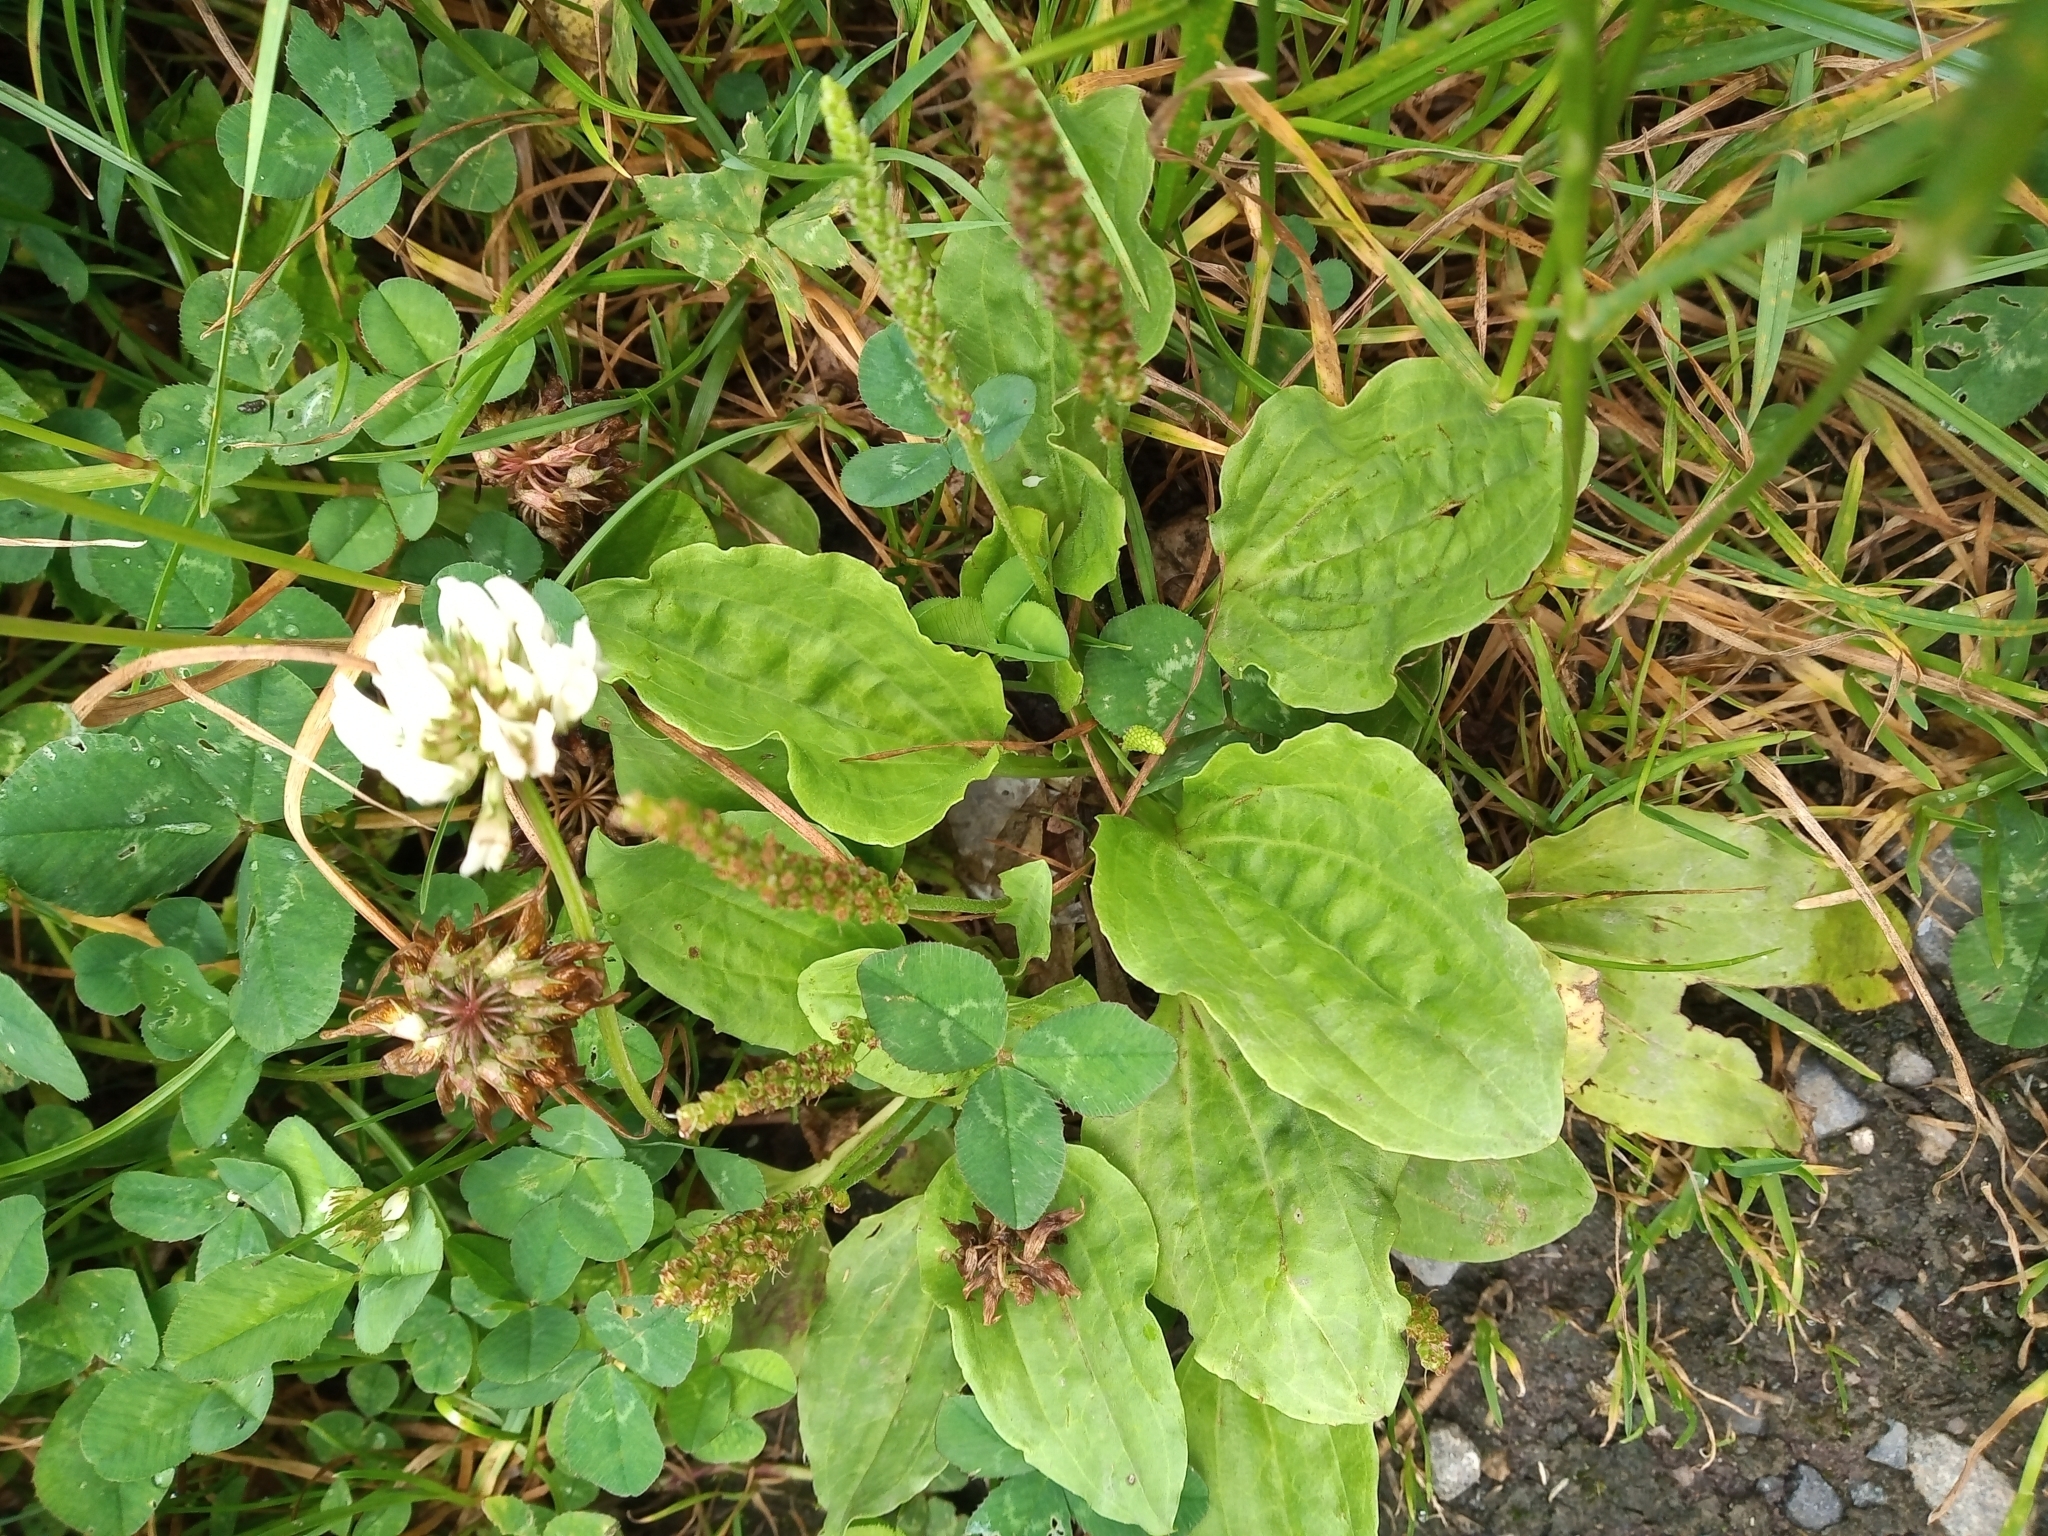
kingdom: Plantae
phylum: Tracheophyta
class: Magnoliopsida
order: Lamiales
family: Plantaginaceae
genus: Plantago
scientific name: Plantago major
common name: Common plantain
